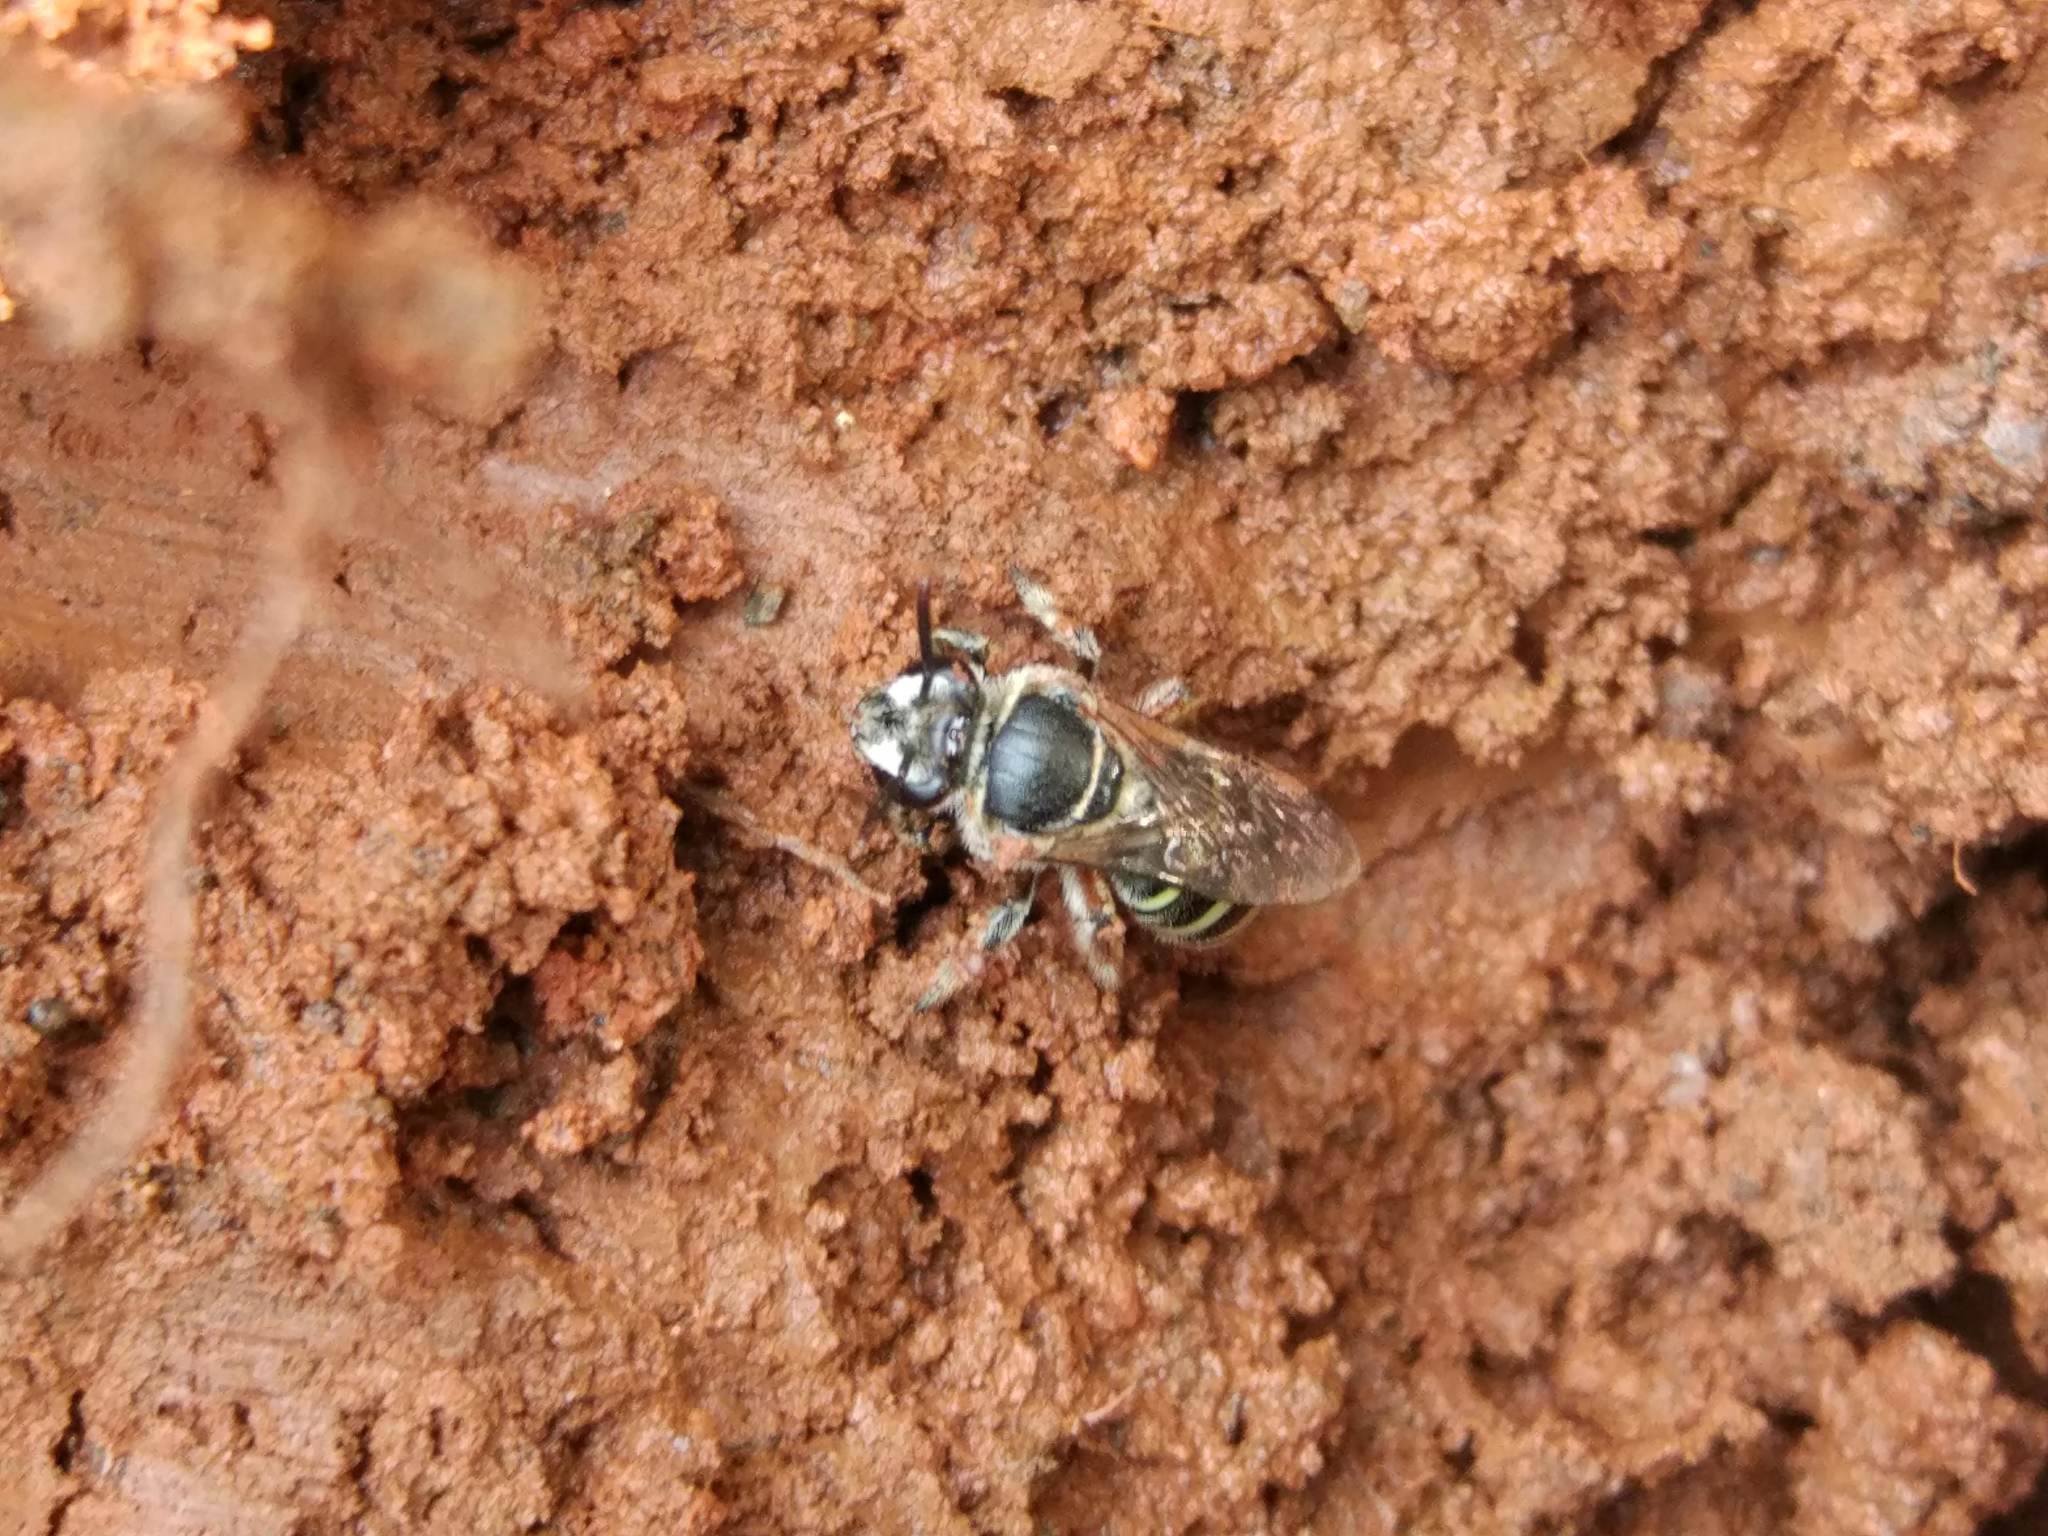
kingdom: Animalia
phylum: Arthropoda
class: Insecta
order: Hymenoptera
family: Halictidae
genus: Nomia
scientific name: Nomia westwoodi
